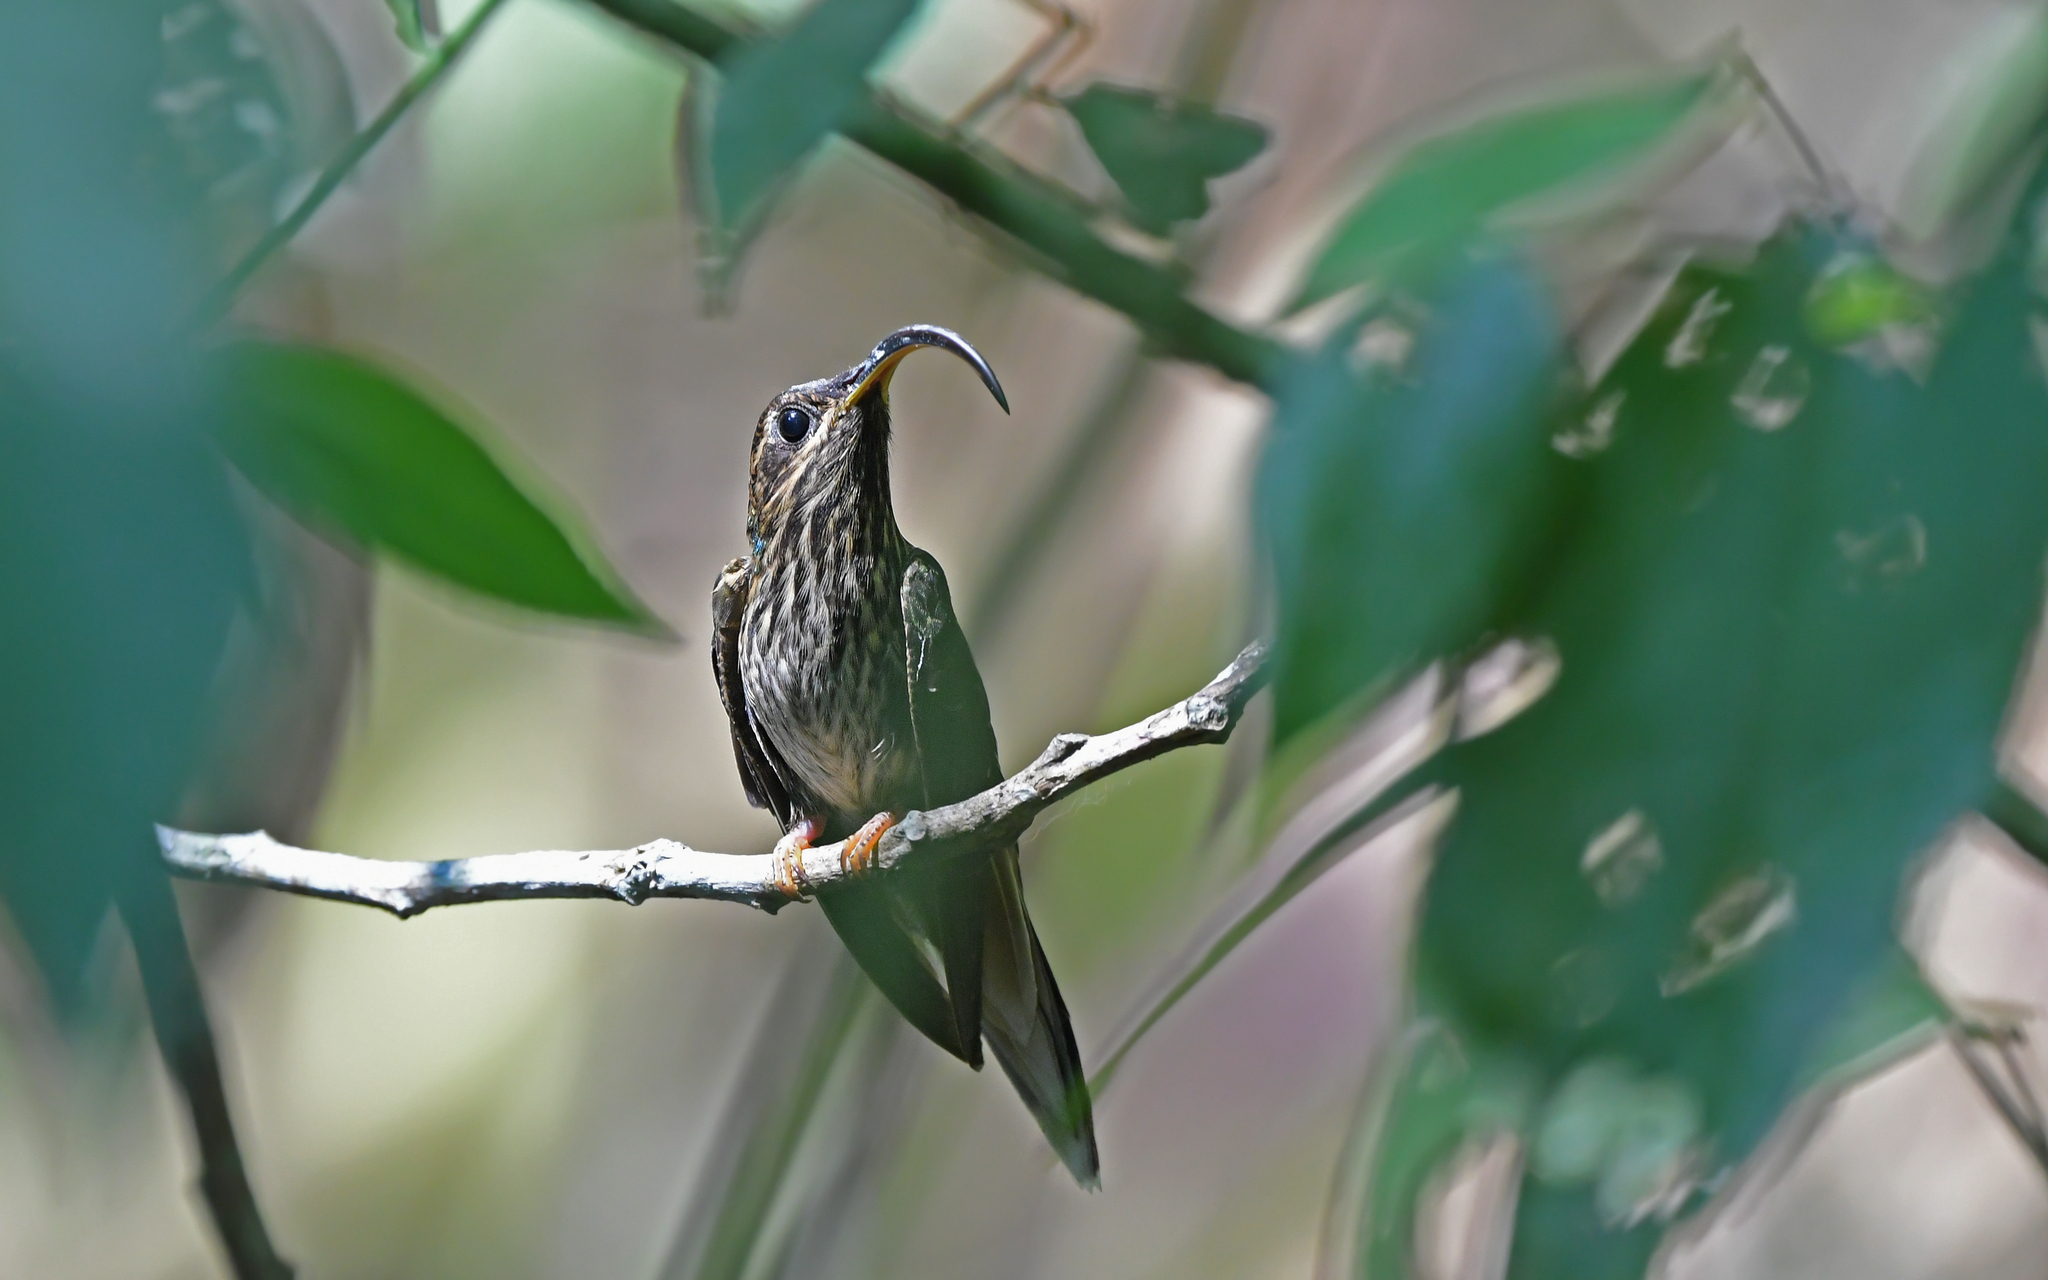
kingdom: Animalia
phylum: Chordata
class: Aves
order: Apodiformes
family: Trochilidae
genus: Eutoxeres
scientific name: Eutoxeres condamini
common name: Buff-tailed sicklebill
